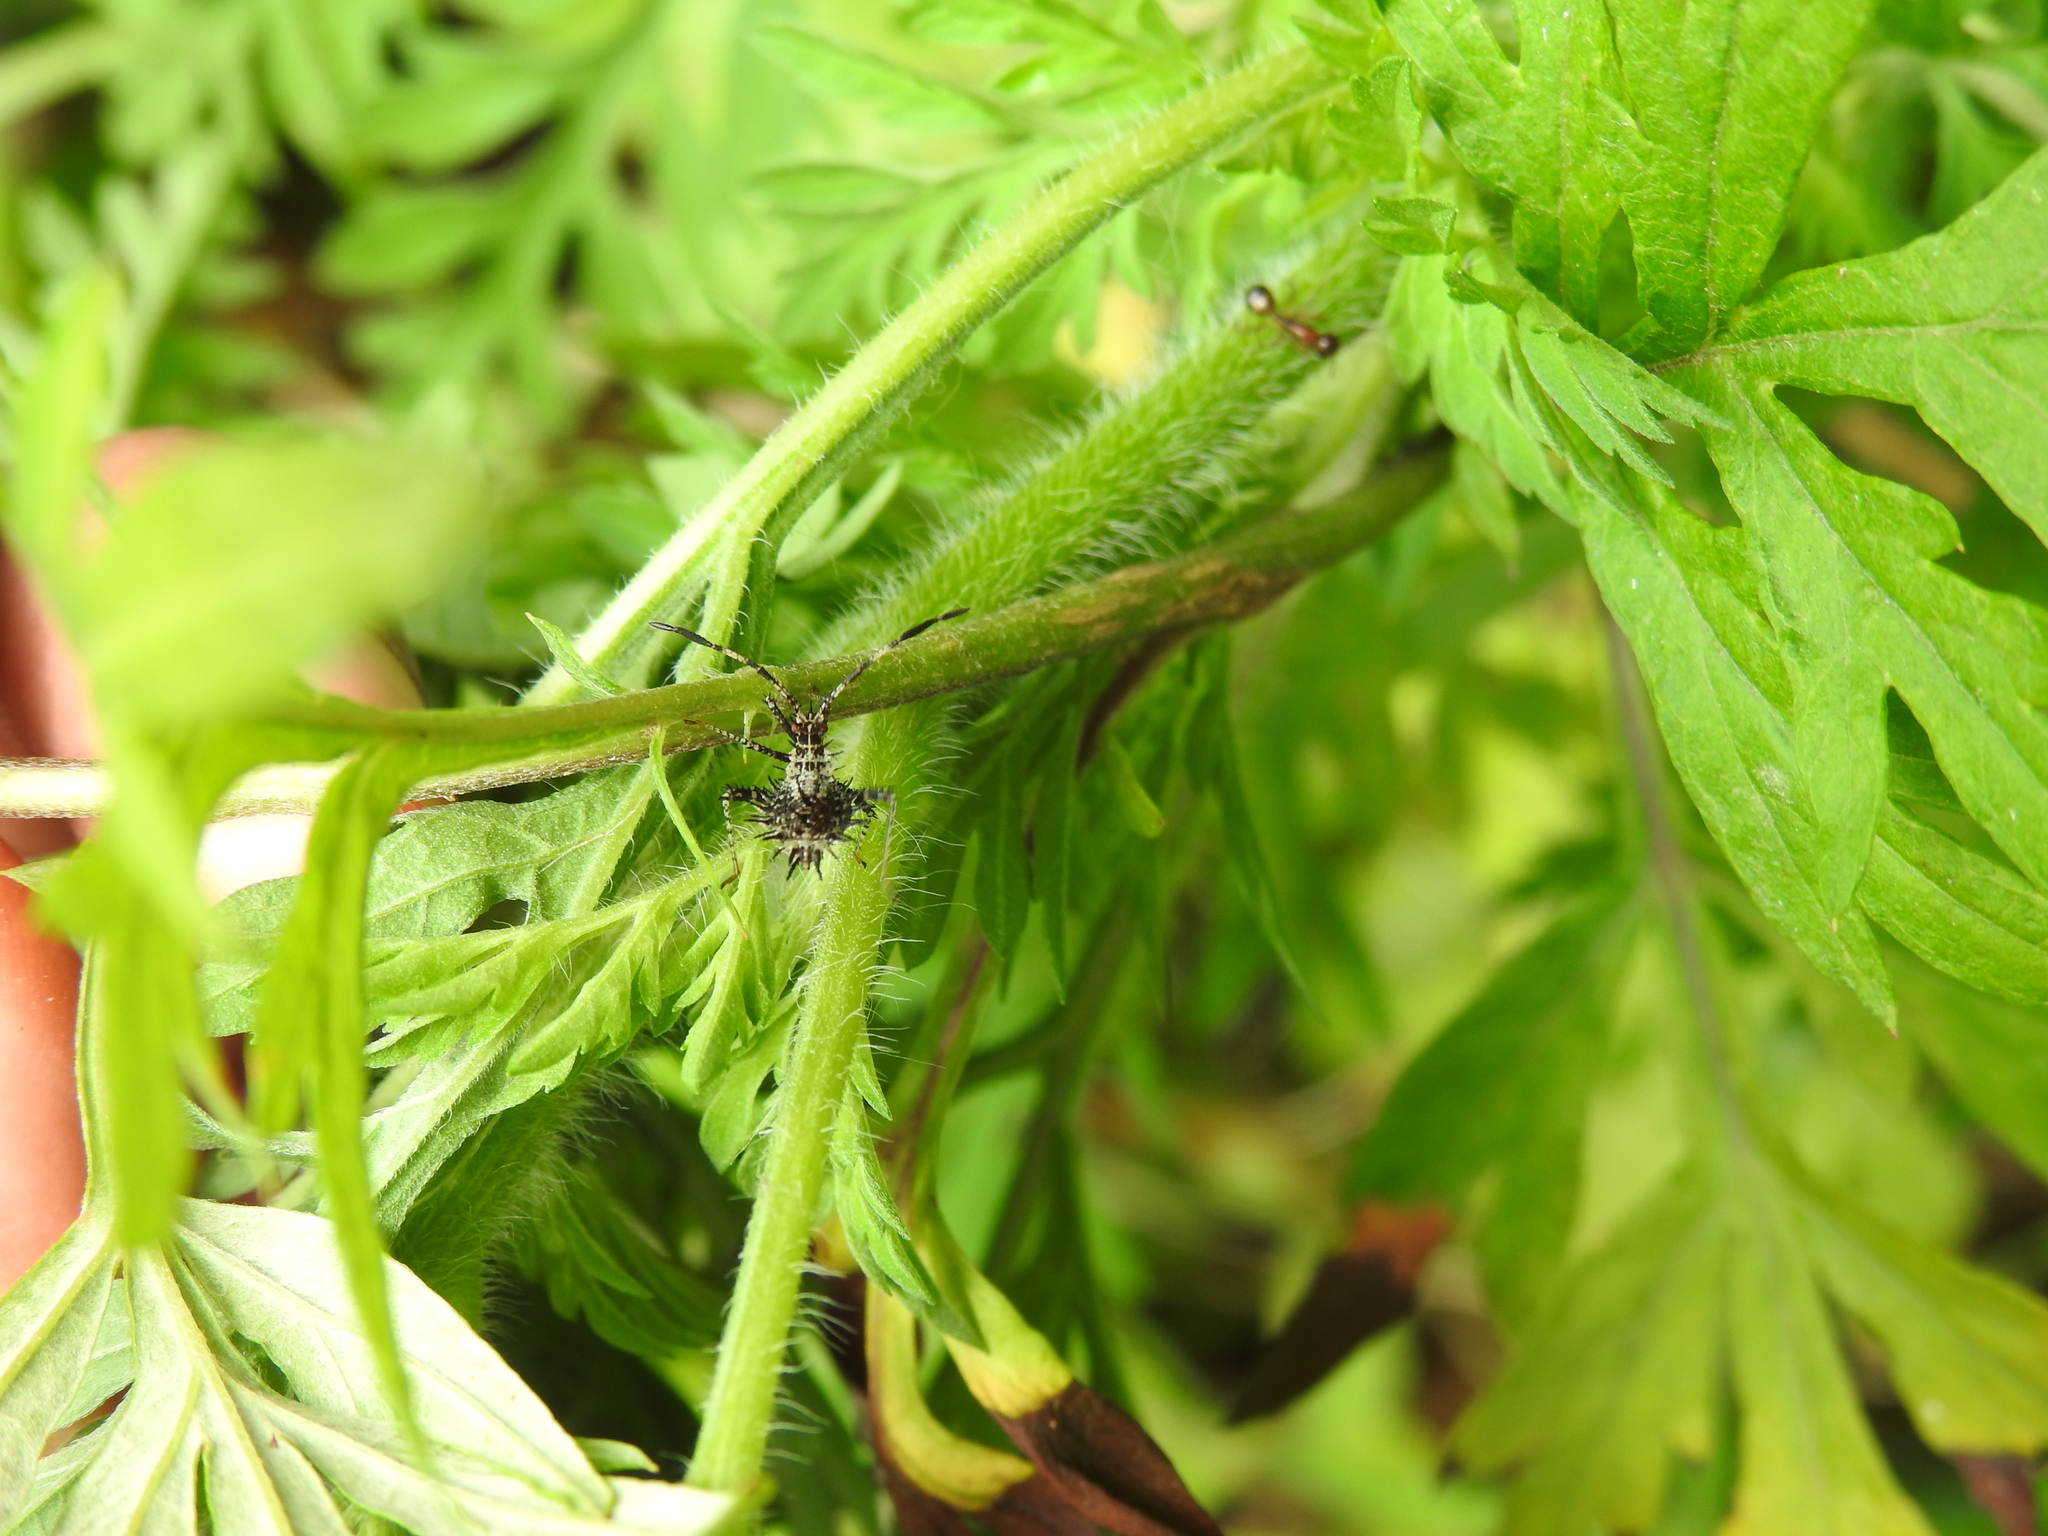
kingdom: Animalia
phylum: Arthropoda
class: Insecta
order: Hemiptera
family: Coreidae
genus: Euthochtha
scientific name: Euthochtha galeator
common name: Helmeted squash bug
